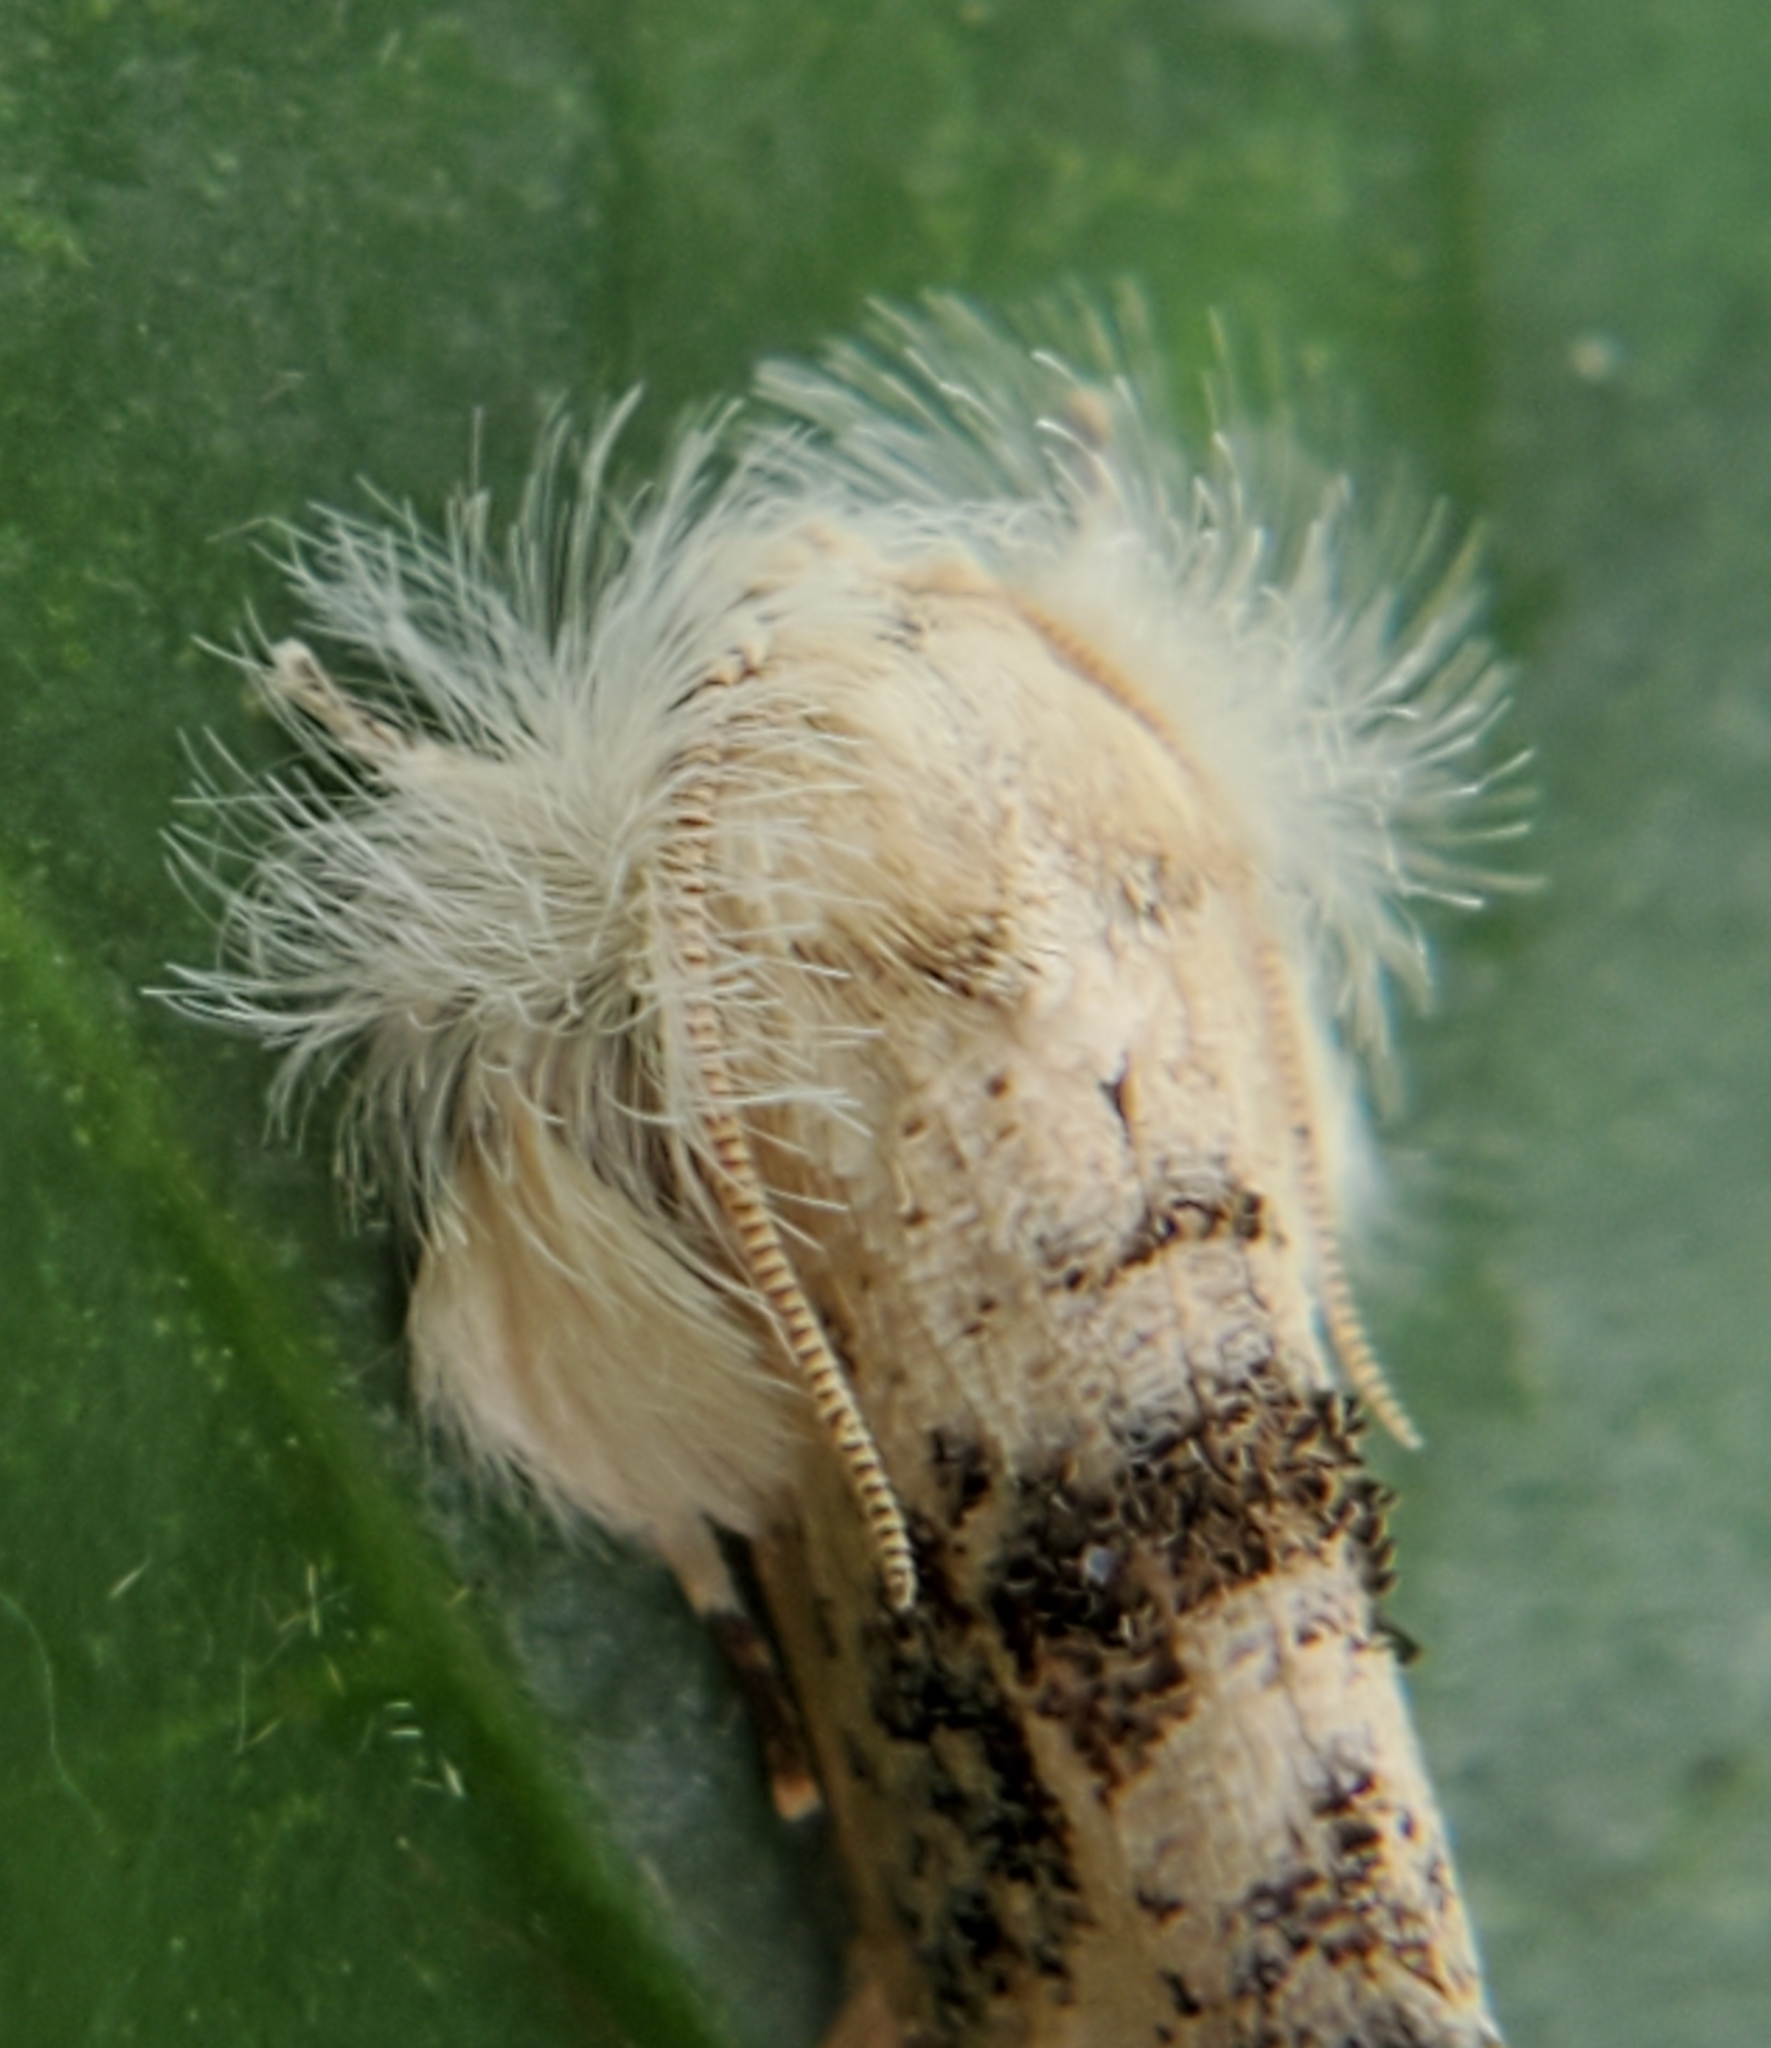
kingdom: Animalia
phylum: Arthropoda
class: Insecta
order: Lepidoptera
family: Tineidae
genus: Acrolophus
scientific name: Acrolophus mycetophagus
